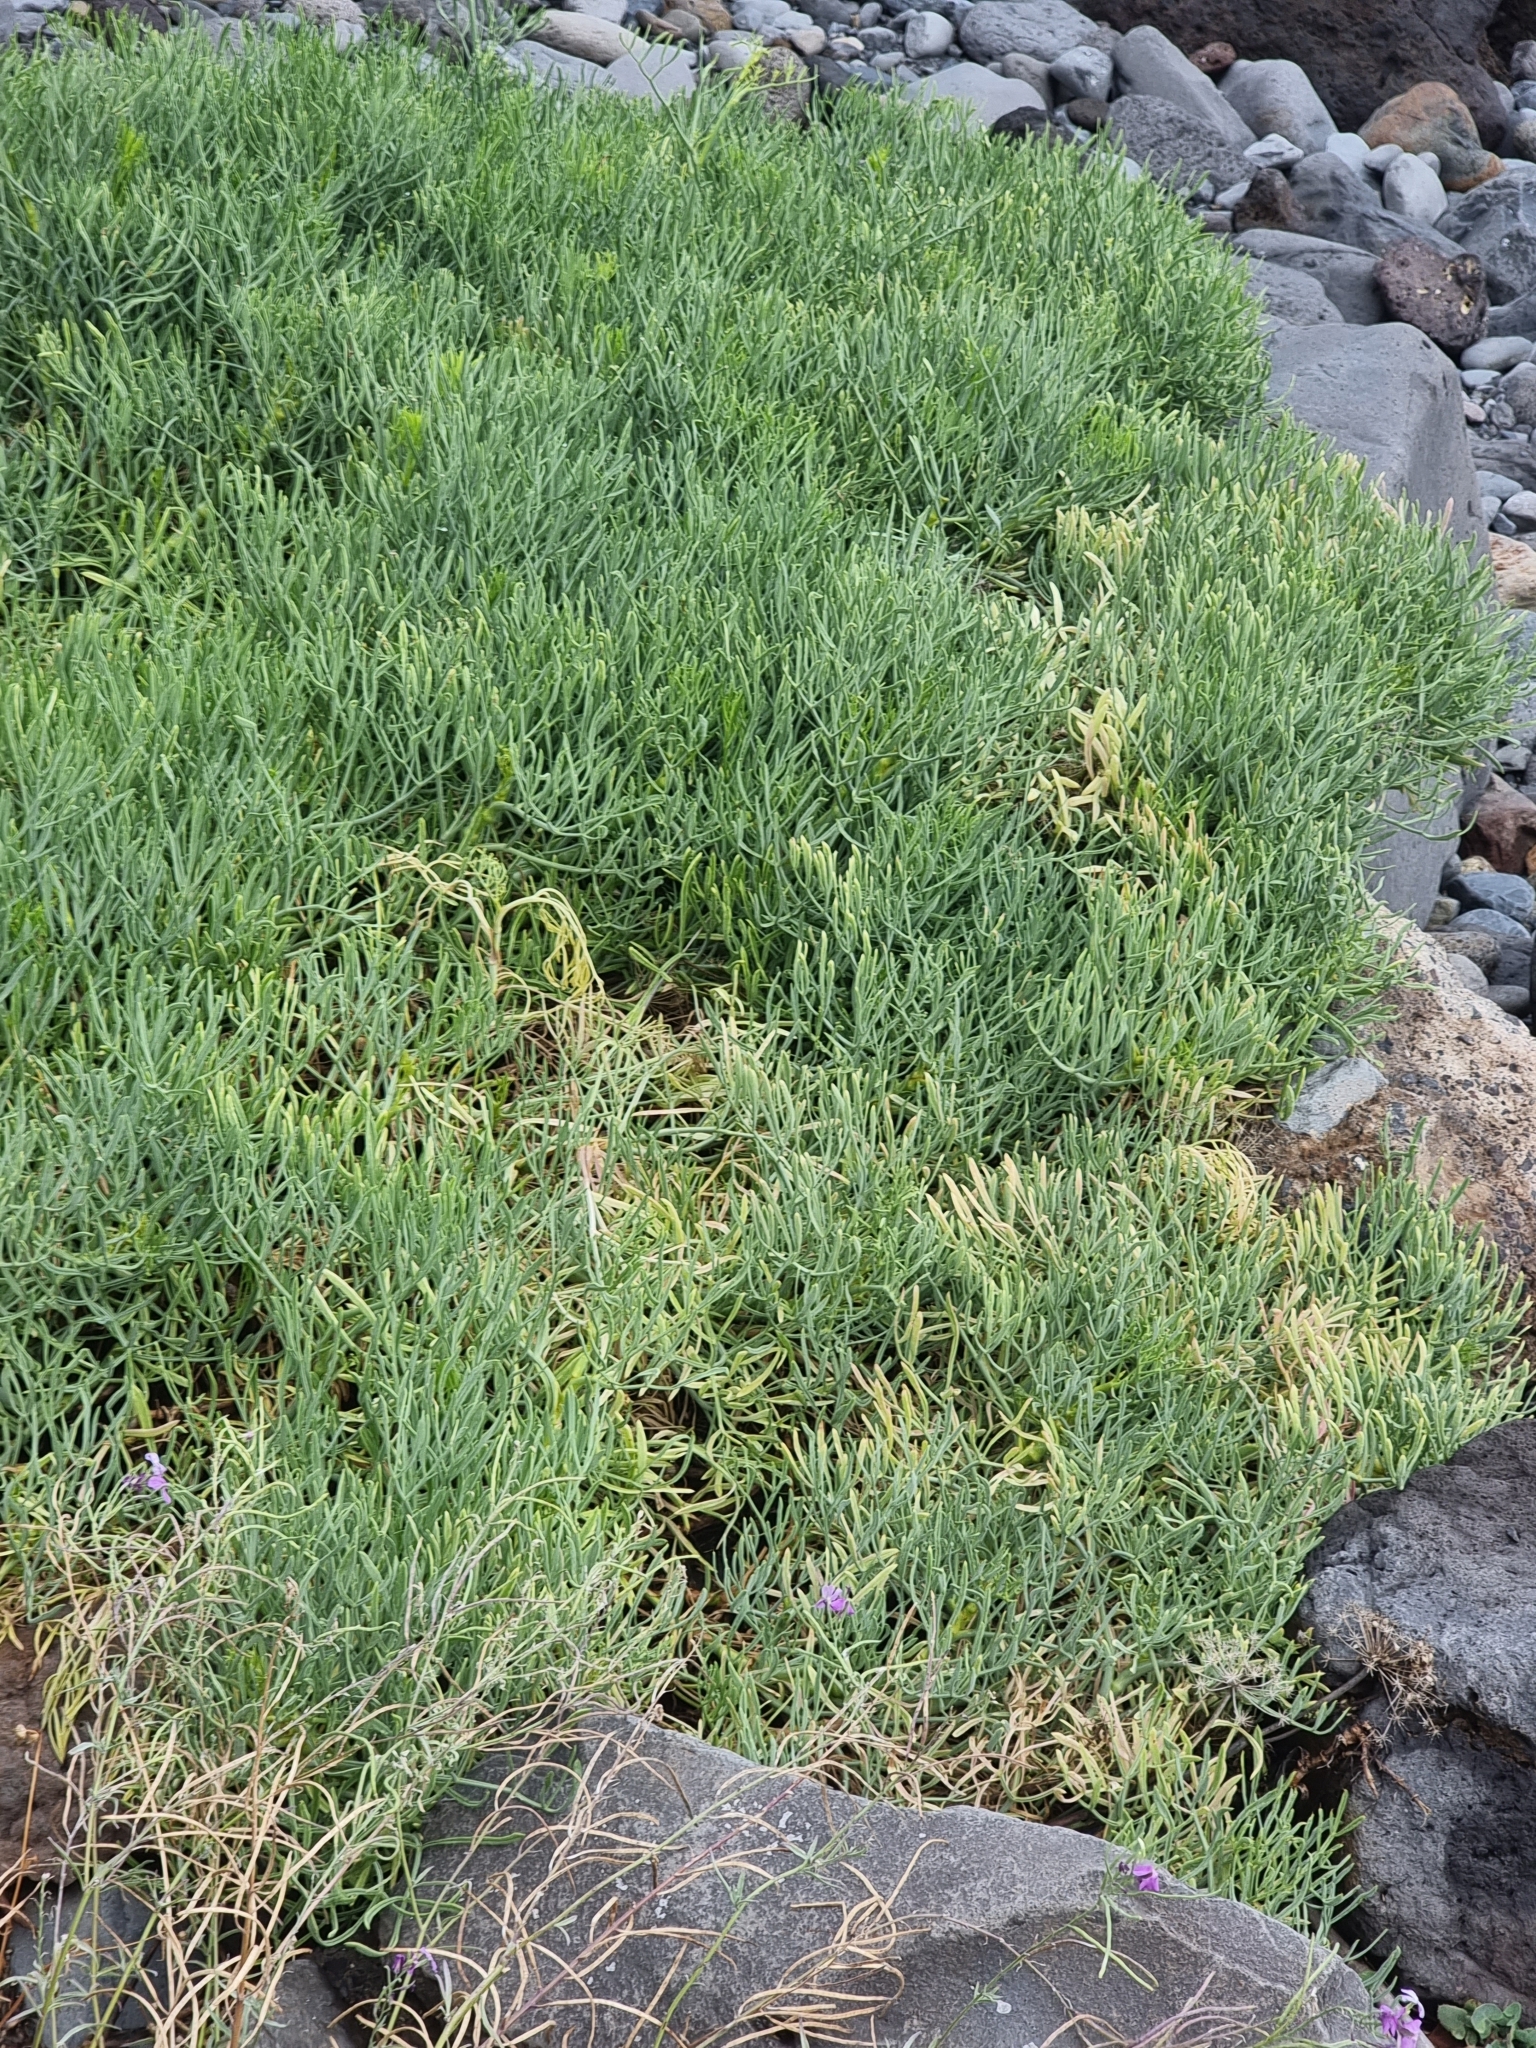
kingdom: Plantae
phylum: Tracheophyta
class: Magnoliopsida
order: Apiales
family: Apiaceae
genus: Crithmum
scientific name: Crithmum maritimum
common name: Rock samphire
